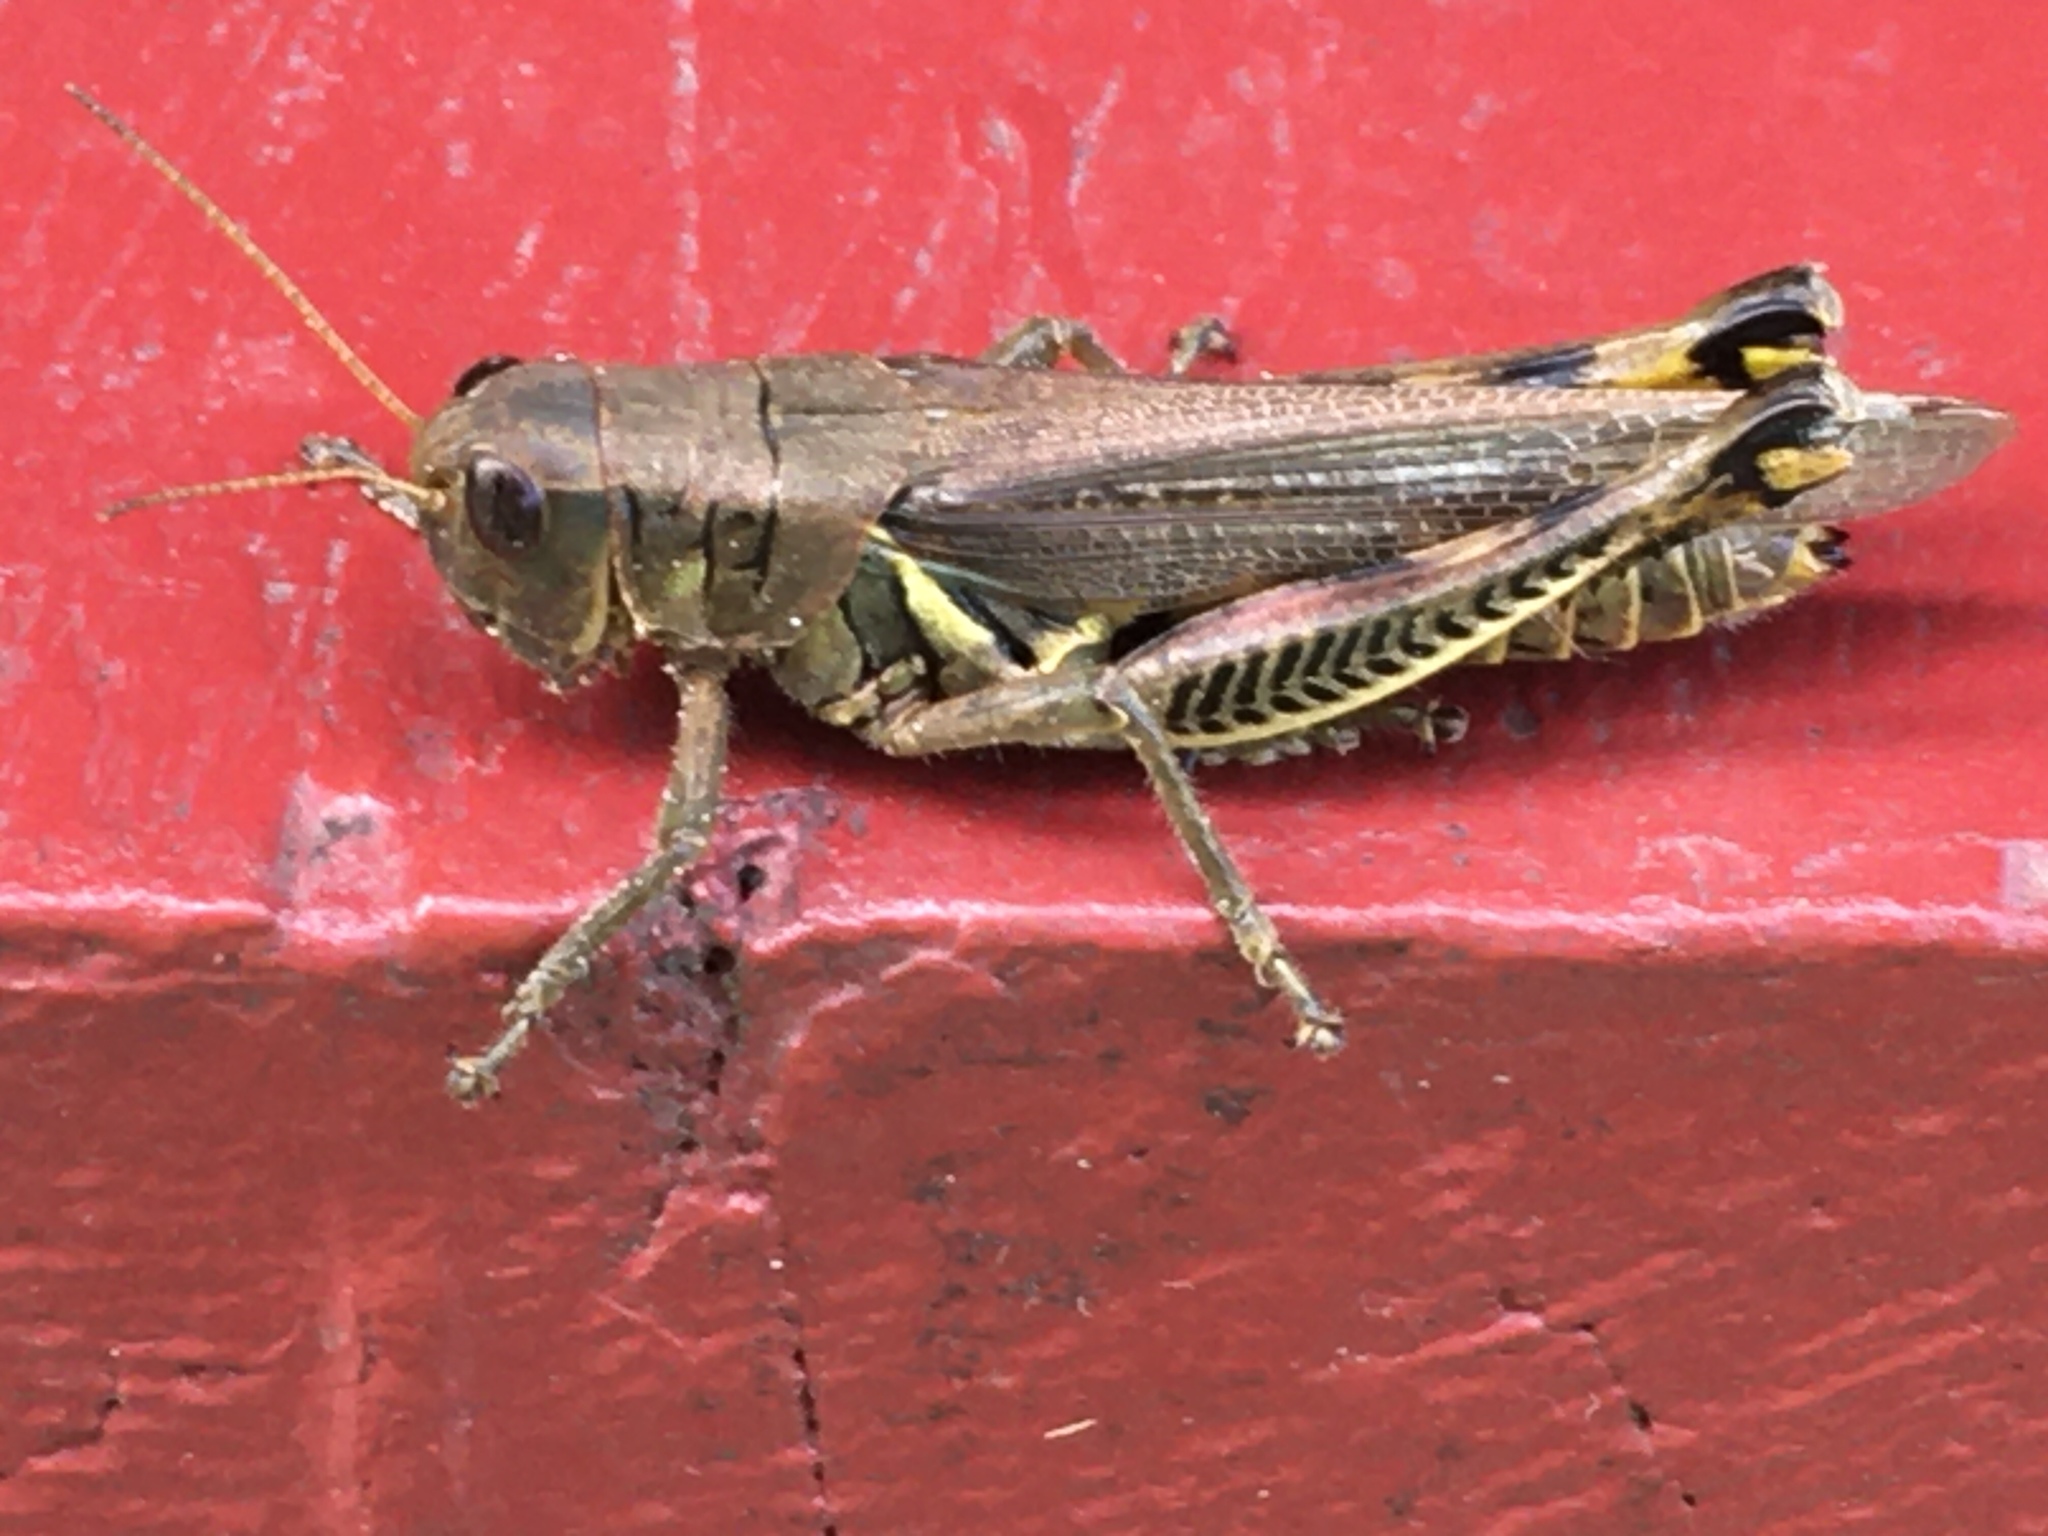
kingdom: Animalia
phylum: Arthropoda
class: Insecta
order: Orthoptera
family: Acrididae
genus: Melanoplus
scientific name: Melanoplus differentialis
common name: Differential grasshopper
